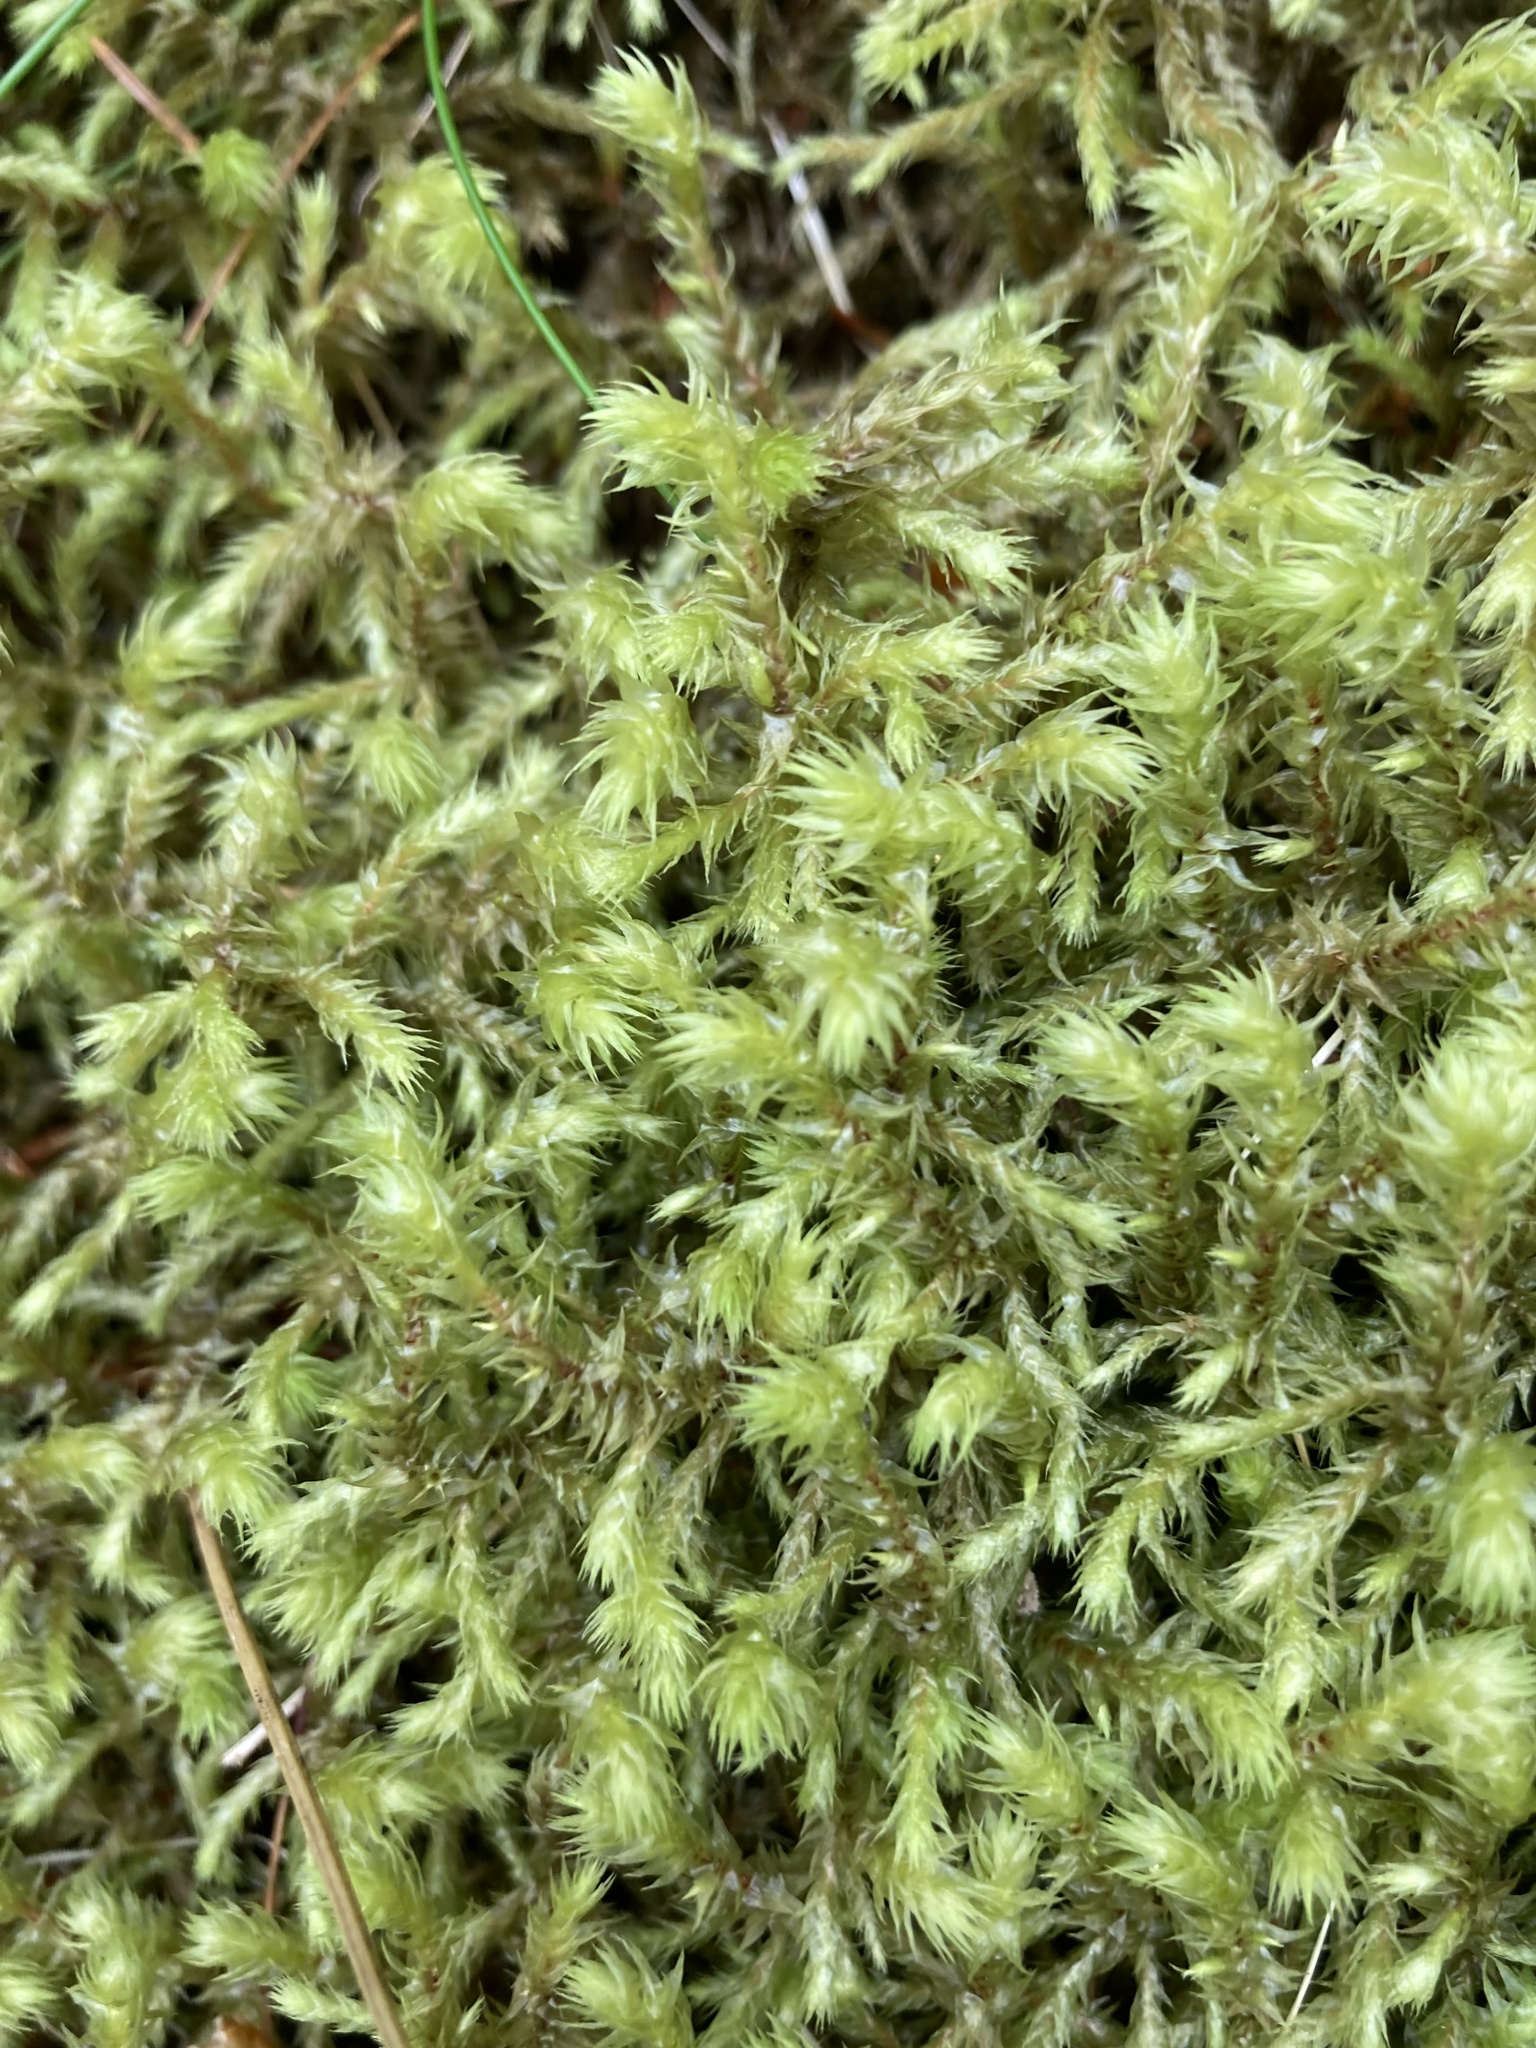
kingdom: Plantae
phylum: Bryophyta
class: Bryopsida
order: Hypnales
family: Hylocomiaceae
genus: Hylocomiadelphus
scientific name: Hylocomiadelphus triquetrus
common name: Rough goose neck moss
